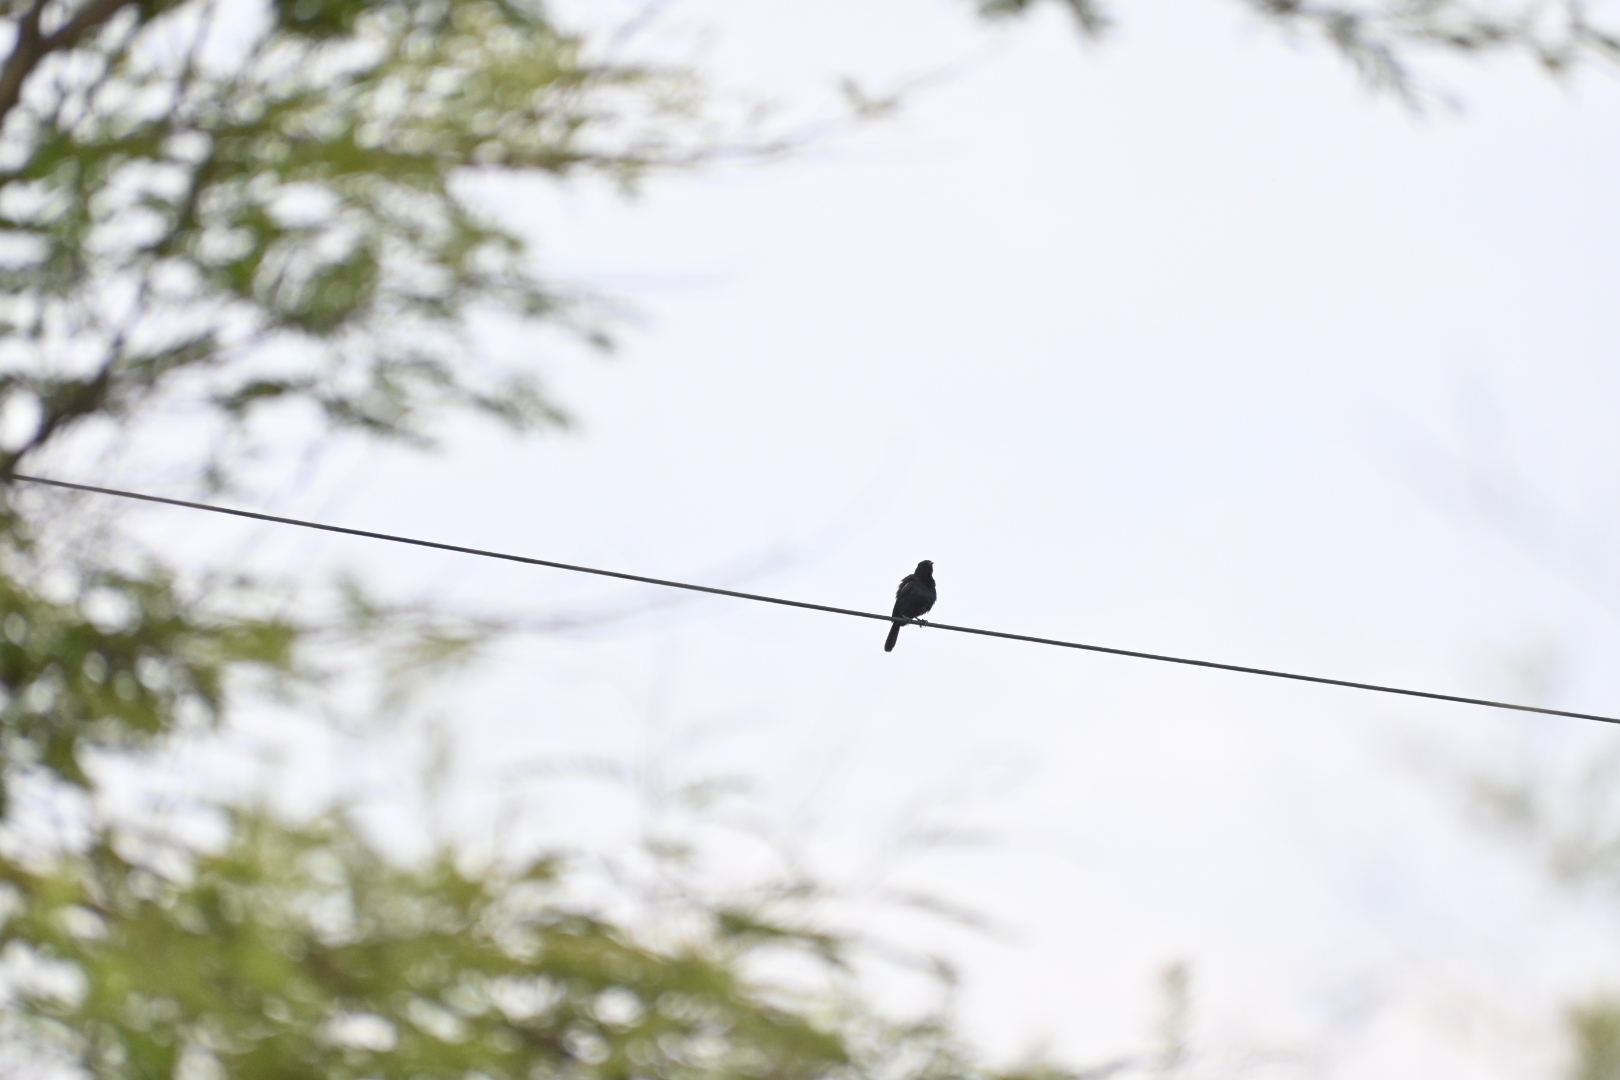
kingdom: Animalia
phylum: Chordata
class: Aves
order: Passeriformes
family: Muscicapidae
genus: Saxicola
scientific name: Saxicola caprata
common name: Pied bush chat
